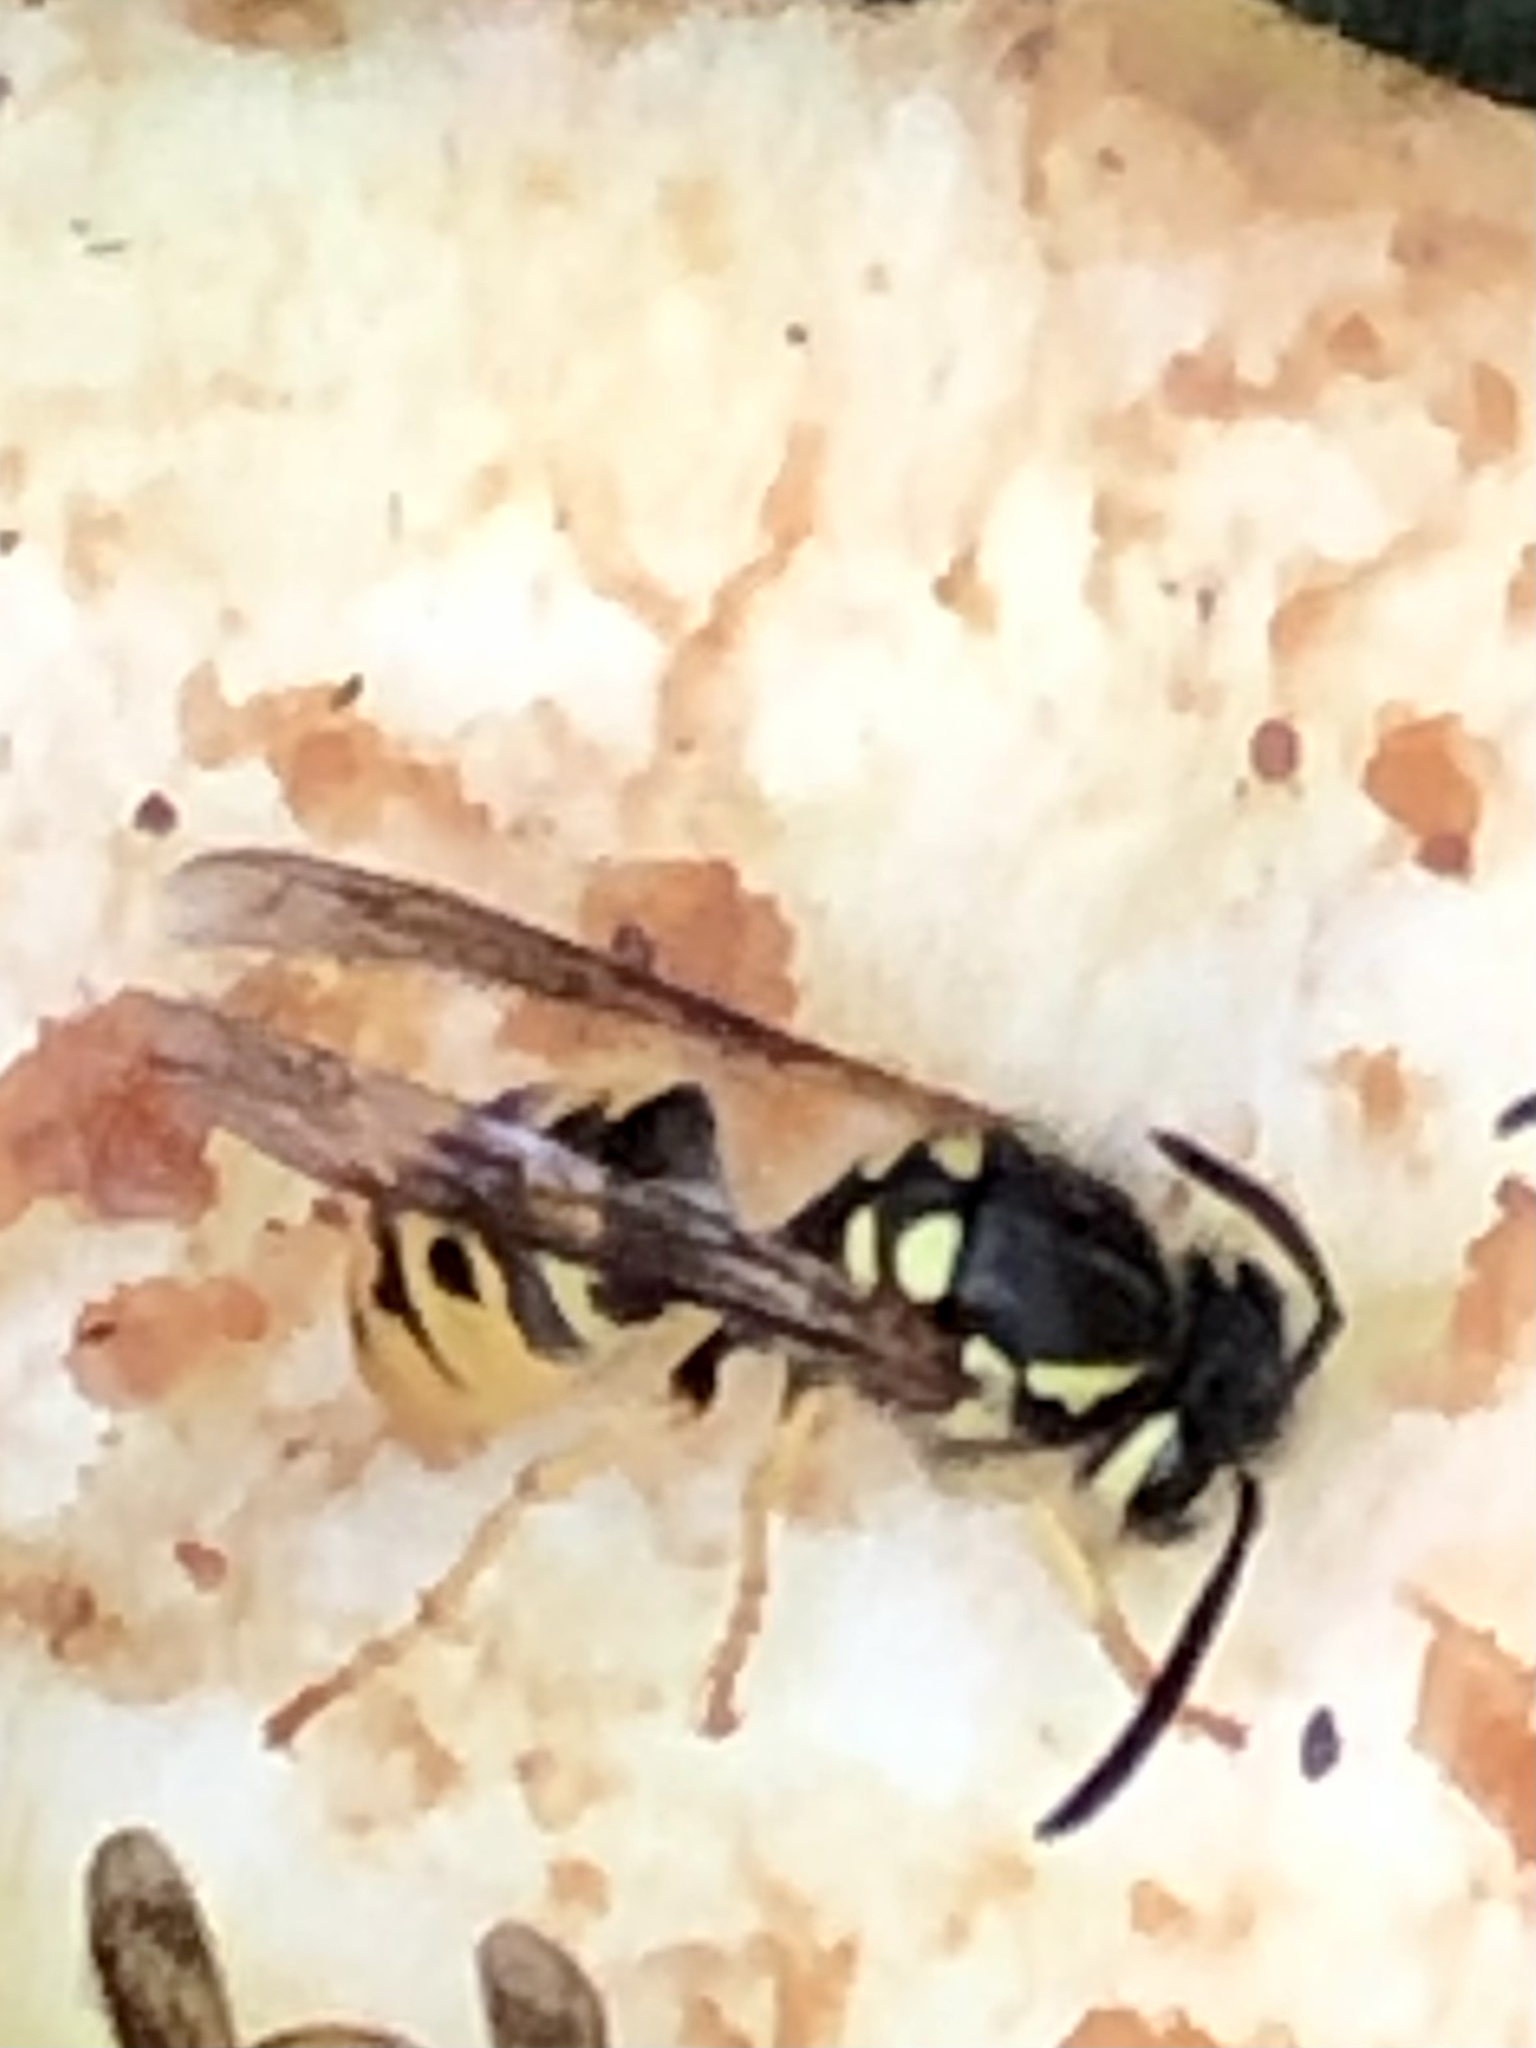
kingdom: Animalia
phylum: Arthropoda
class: Insecta
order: Hymenoptera
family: Vespidae
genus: Vespula
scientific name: Vespula germanica
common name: German wasp
